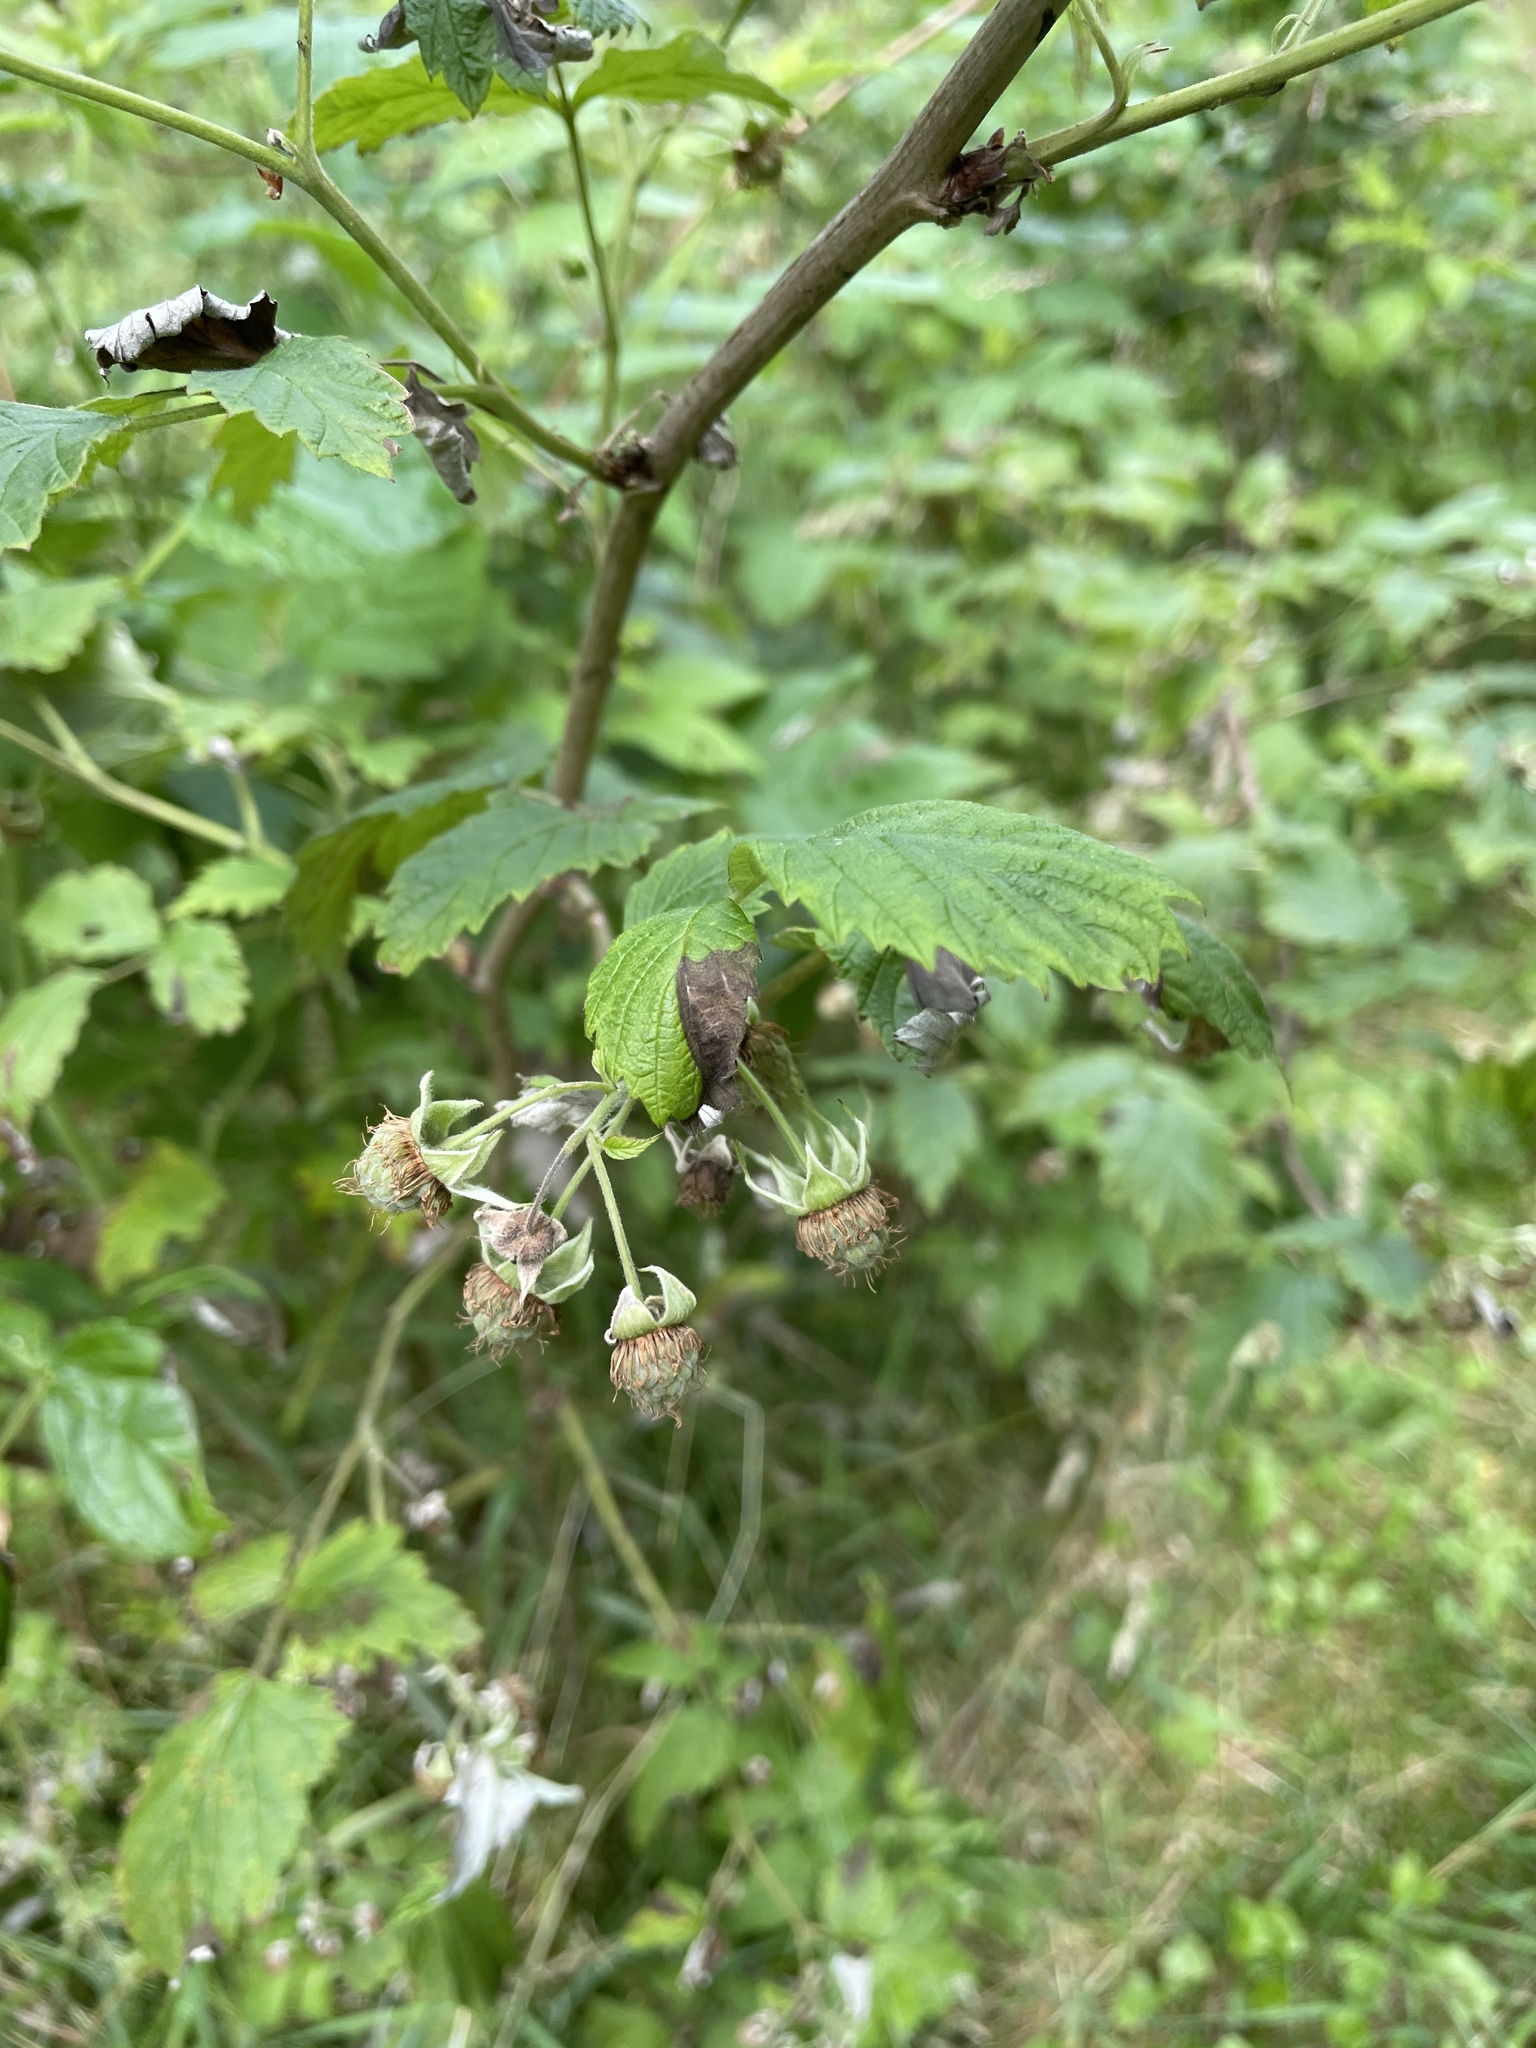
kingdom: Plantae
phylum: Tracheophyta
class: Magnoliopsida
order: Rosales
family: Rosaceae
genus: Rubus
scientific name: Rubus idaeus
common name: Raspberry
